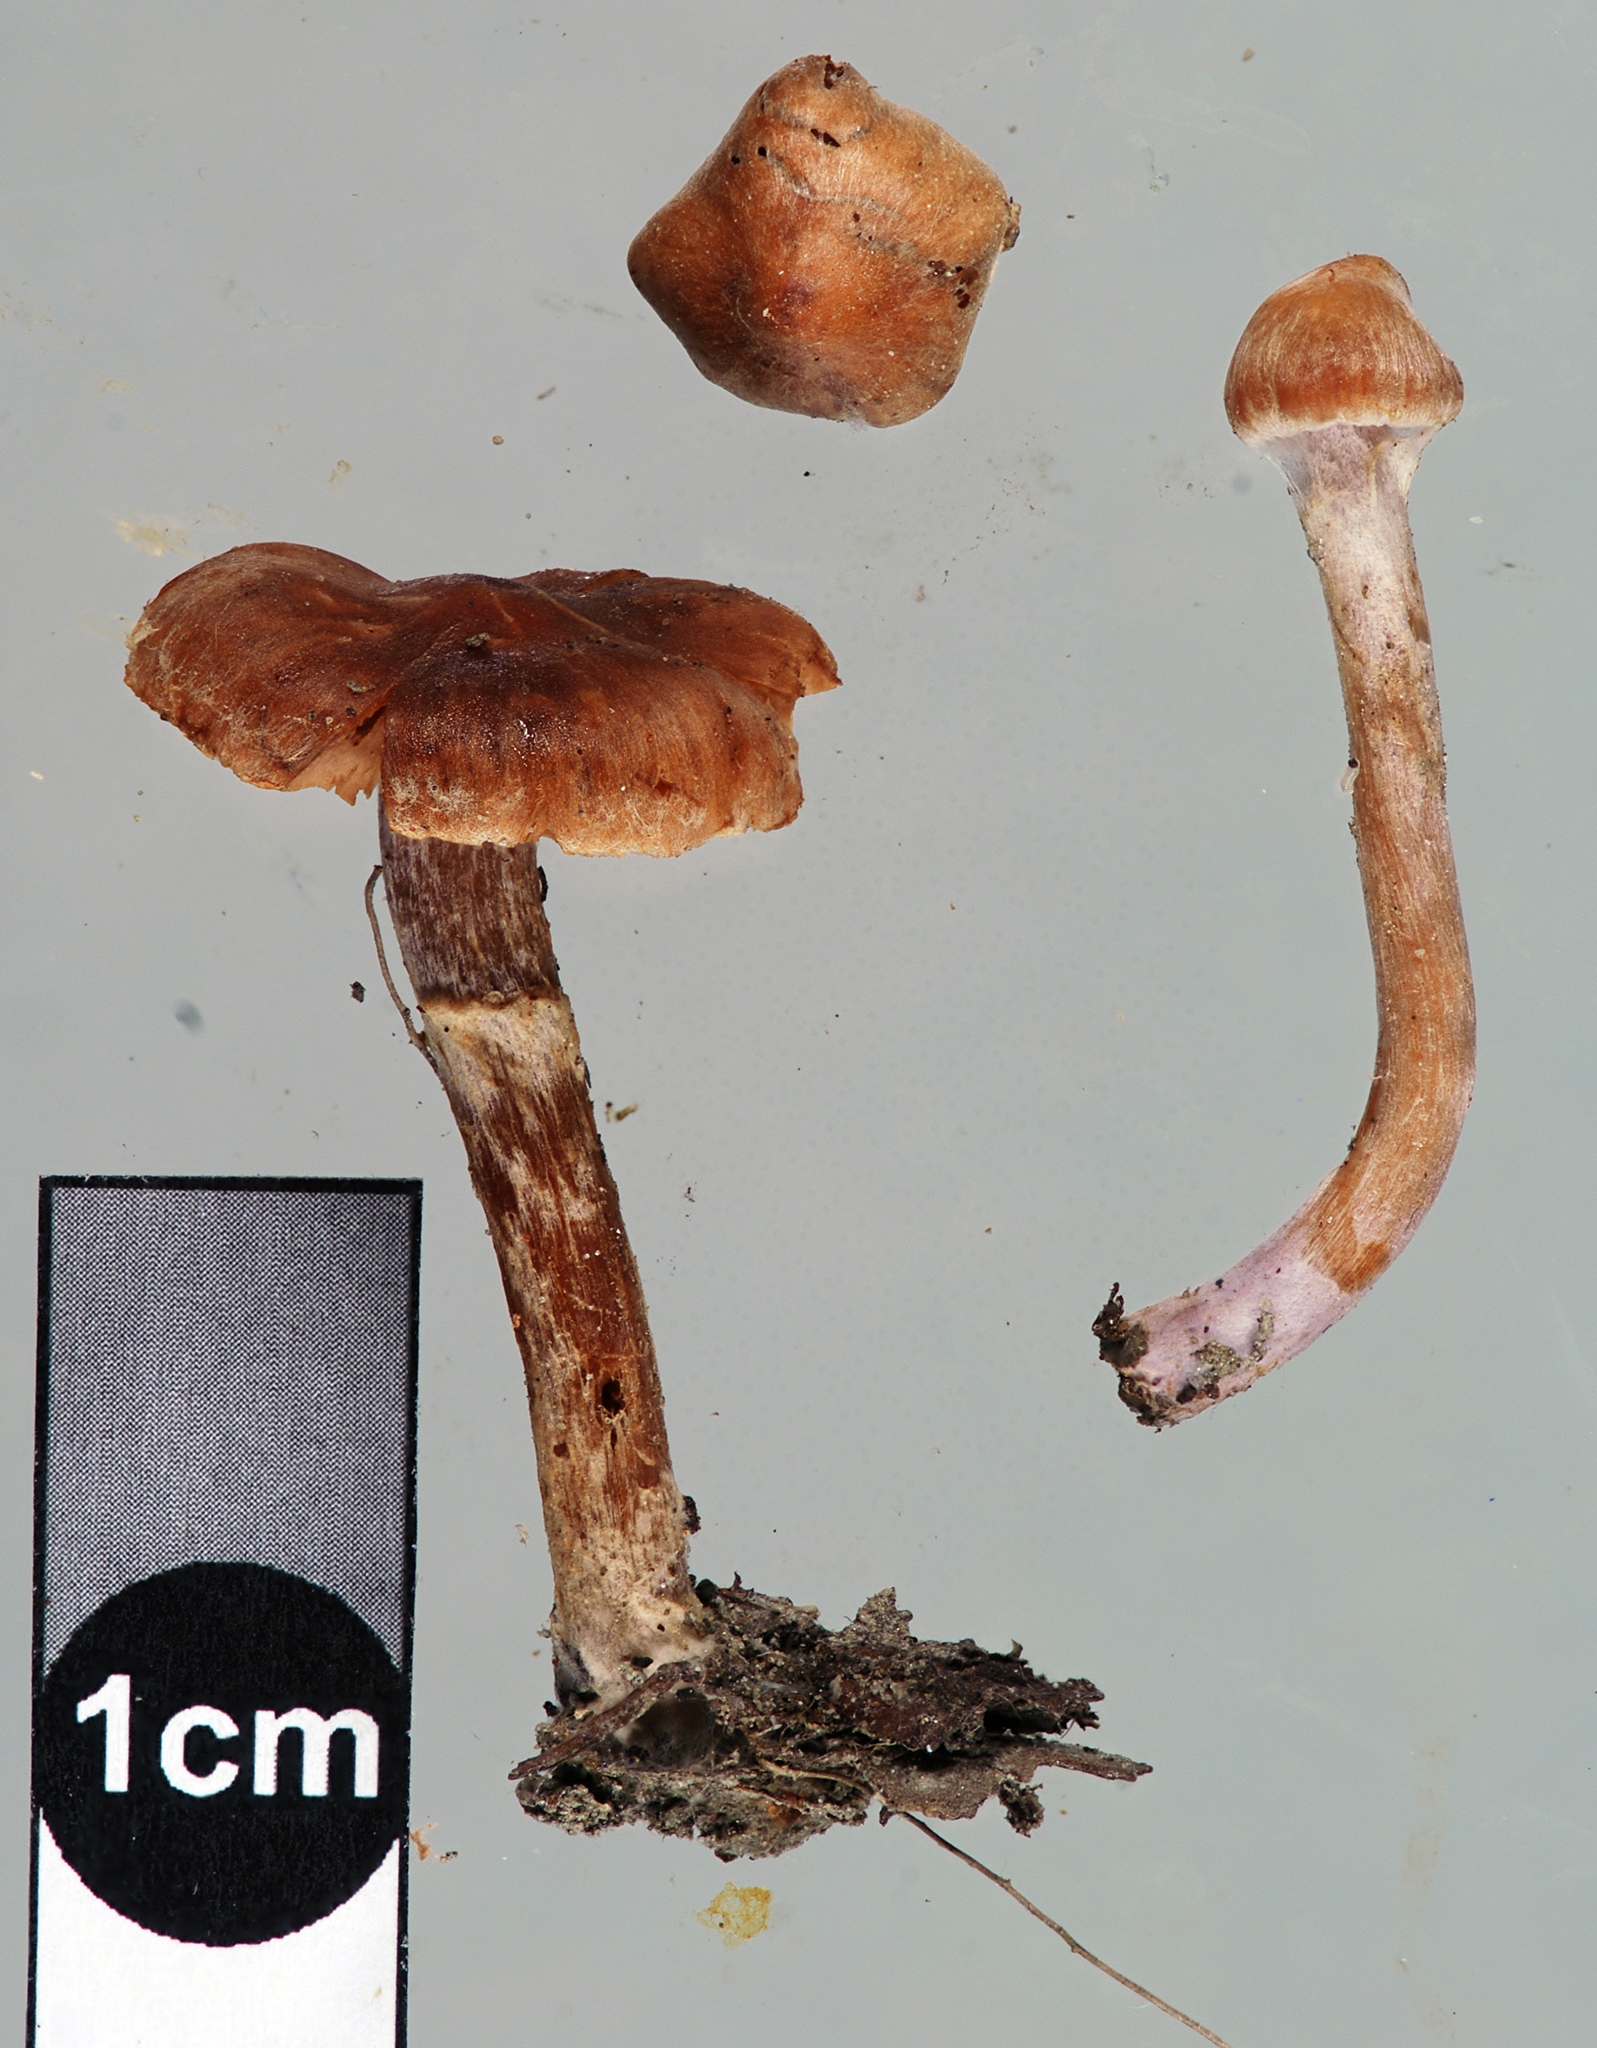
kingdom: Fungi
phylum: Basidiomycota
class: Agaricomycetes
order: Agaricales
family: Cortinariaceae
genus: Cortinarius
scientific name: Cortinarius pseudofallax
